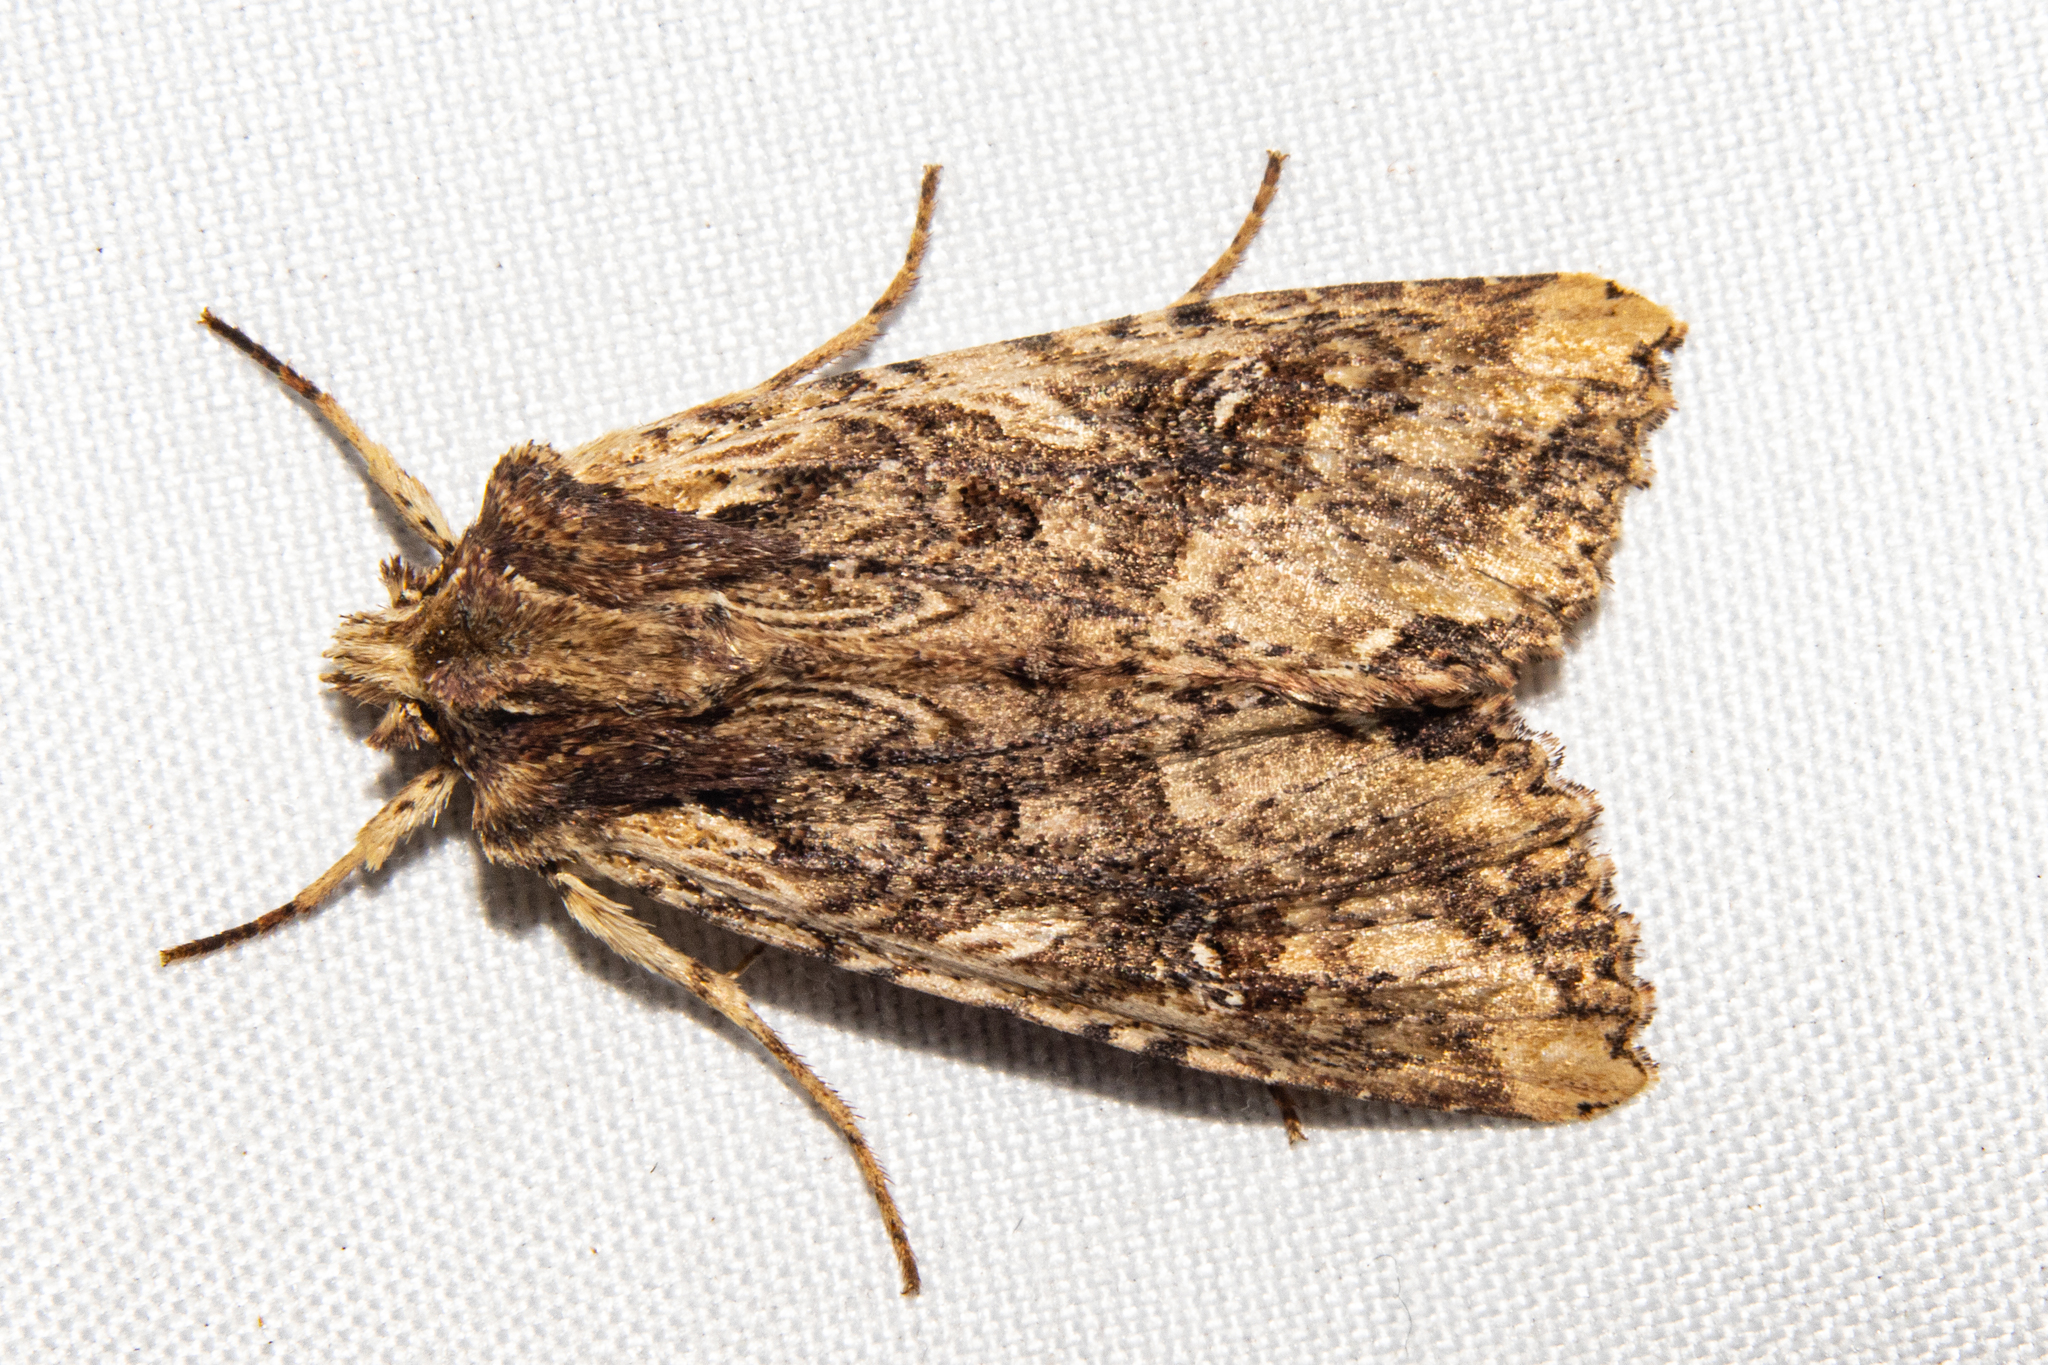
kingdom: Animalia
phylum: Arthropoda
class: Insecta
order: Lepidoptera
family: Noctuidae
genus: Meterana
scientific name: Meterana stipata
